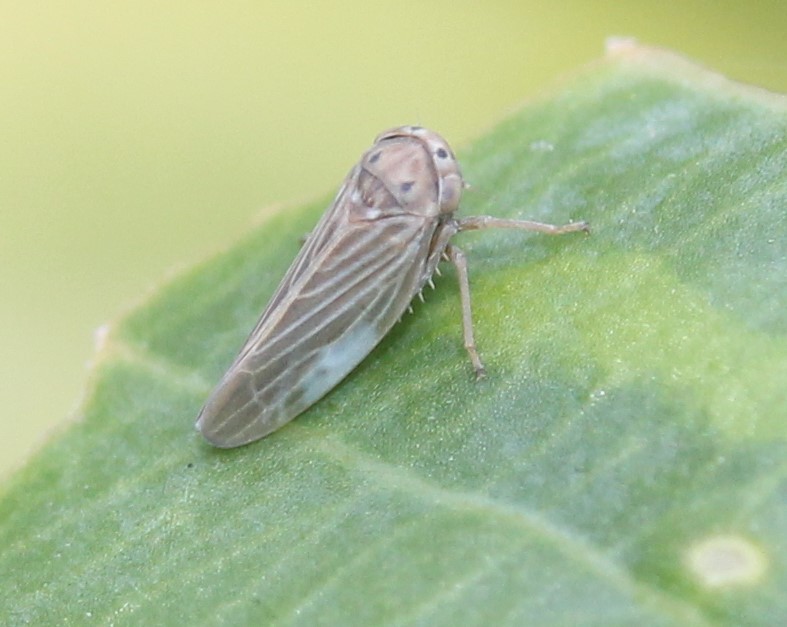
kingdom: Animalia
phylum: Arthropoda
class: Insecta
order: Hemiptera
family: Cicadellidae
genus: Agallia
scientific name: Agallia constricta
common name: The constricted leafhopper
